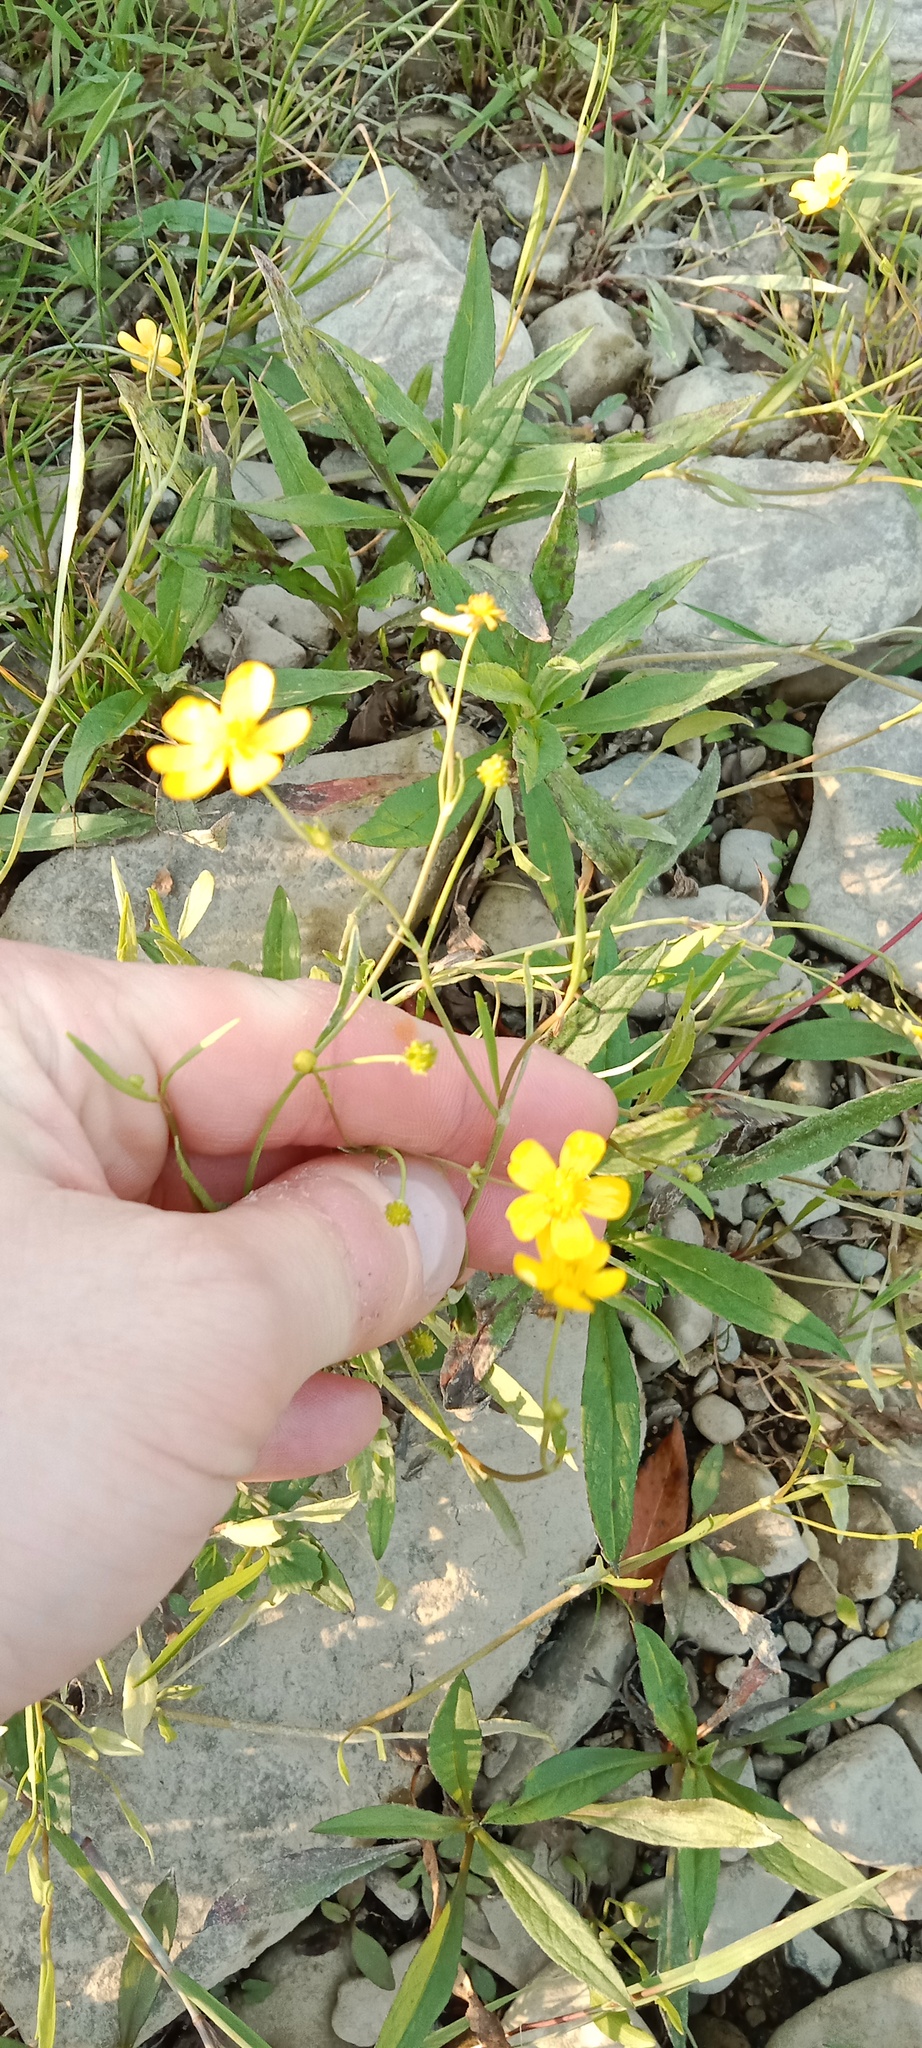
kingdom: Plantae
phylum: Tracheophyta
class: Magnoliopsida
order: Ranunculales
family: Ranunculaceae
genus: Ranunculus
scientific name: Ranunculus flammula
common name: Lesser spearwort
